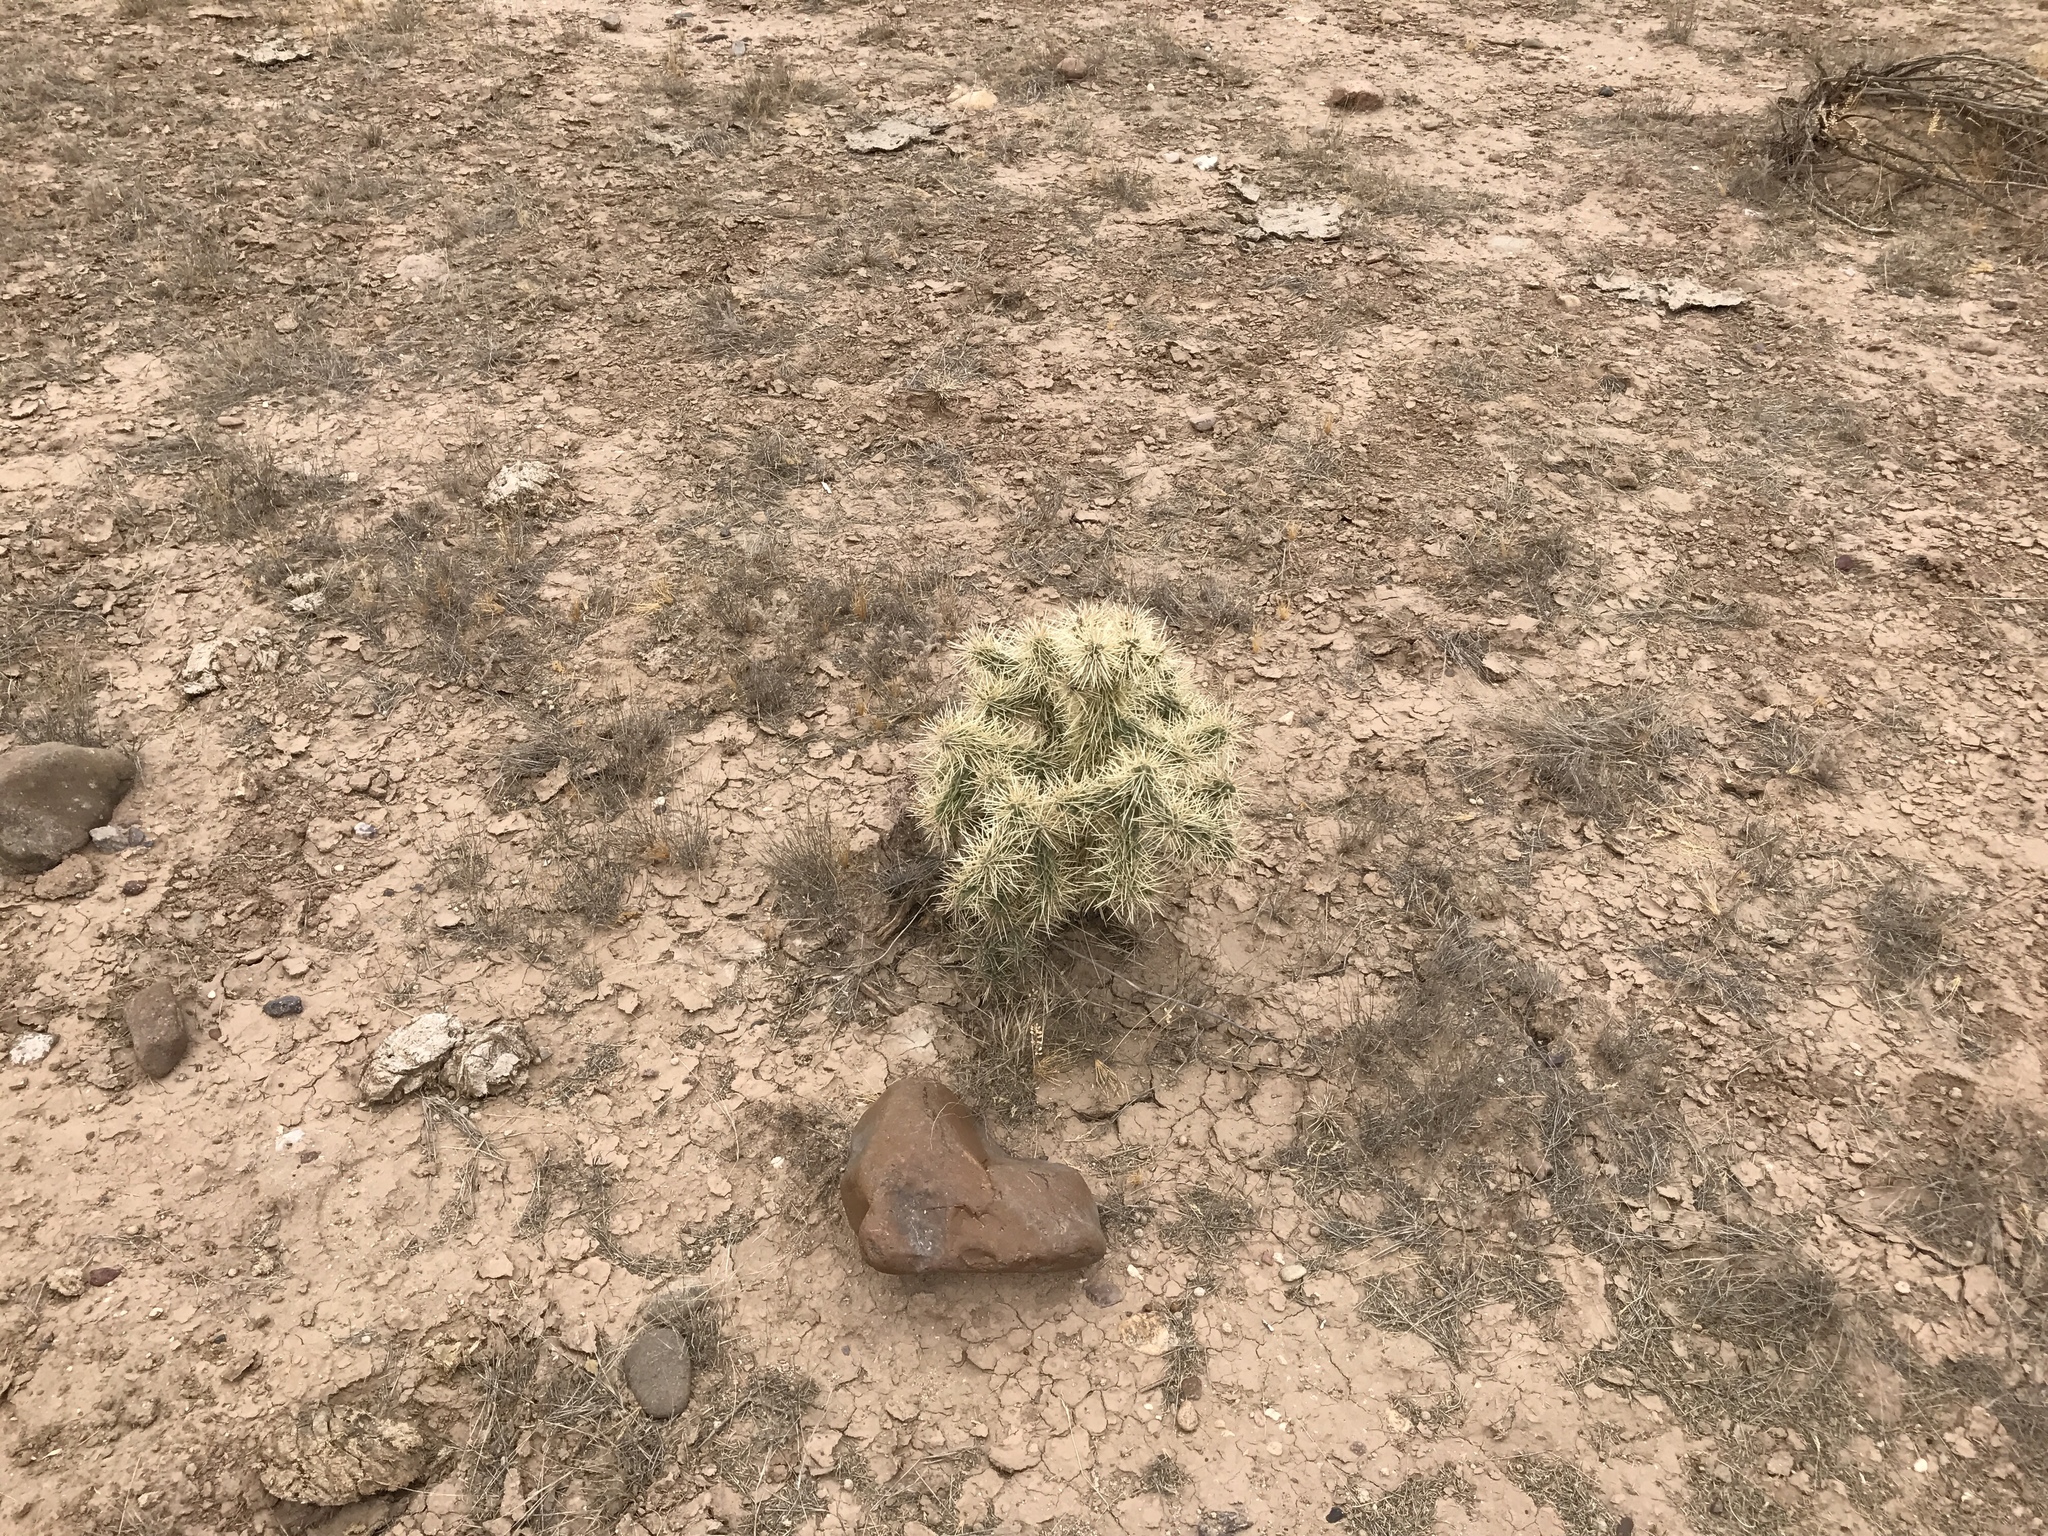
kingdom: Plantae
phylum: Tracheophyta
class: Magnoliopsida
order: Caryophyllales
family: Cactaceae
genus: Cylindropuntia
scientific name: Cylindropuntia fulgida
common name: Jumping cholla
